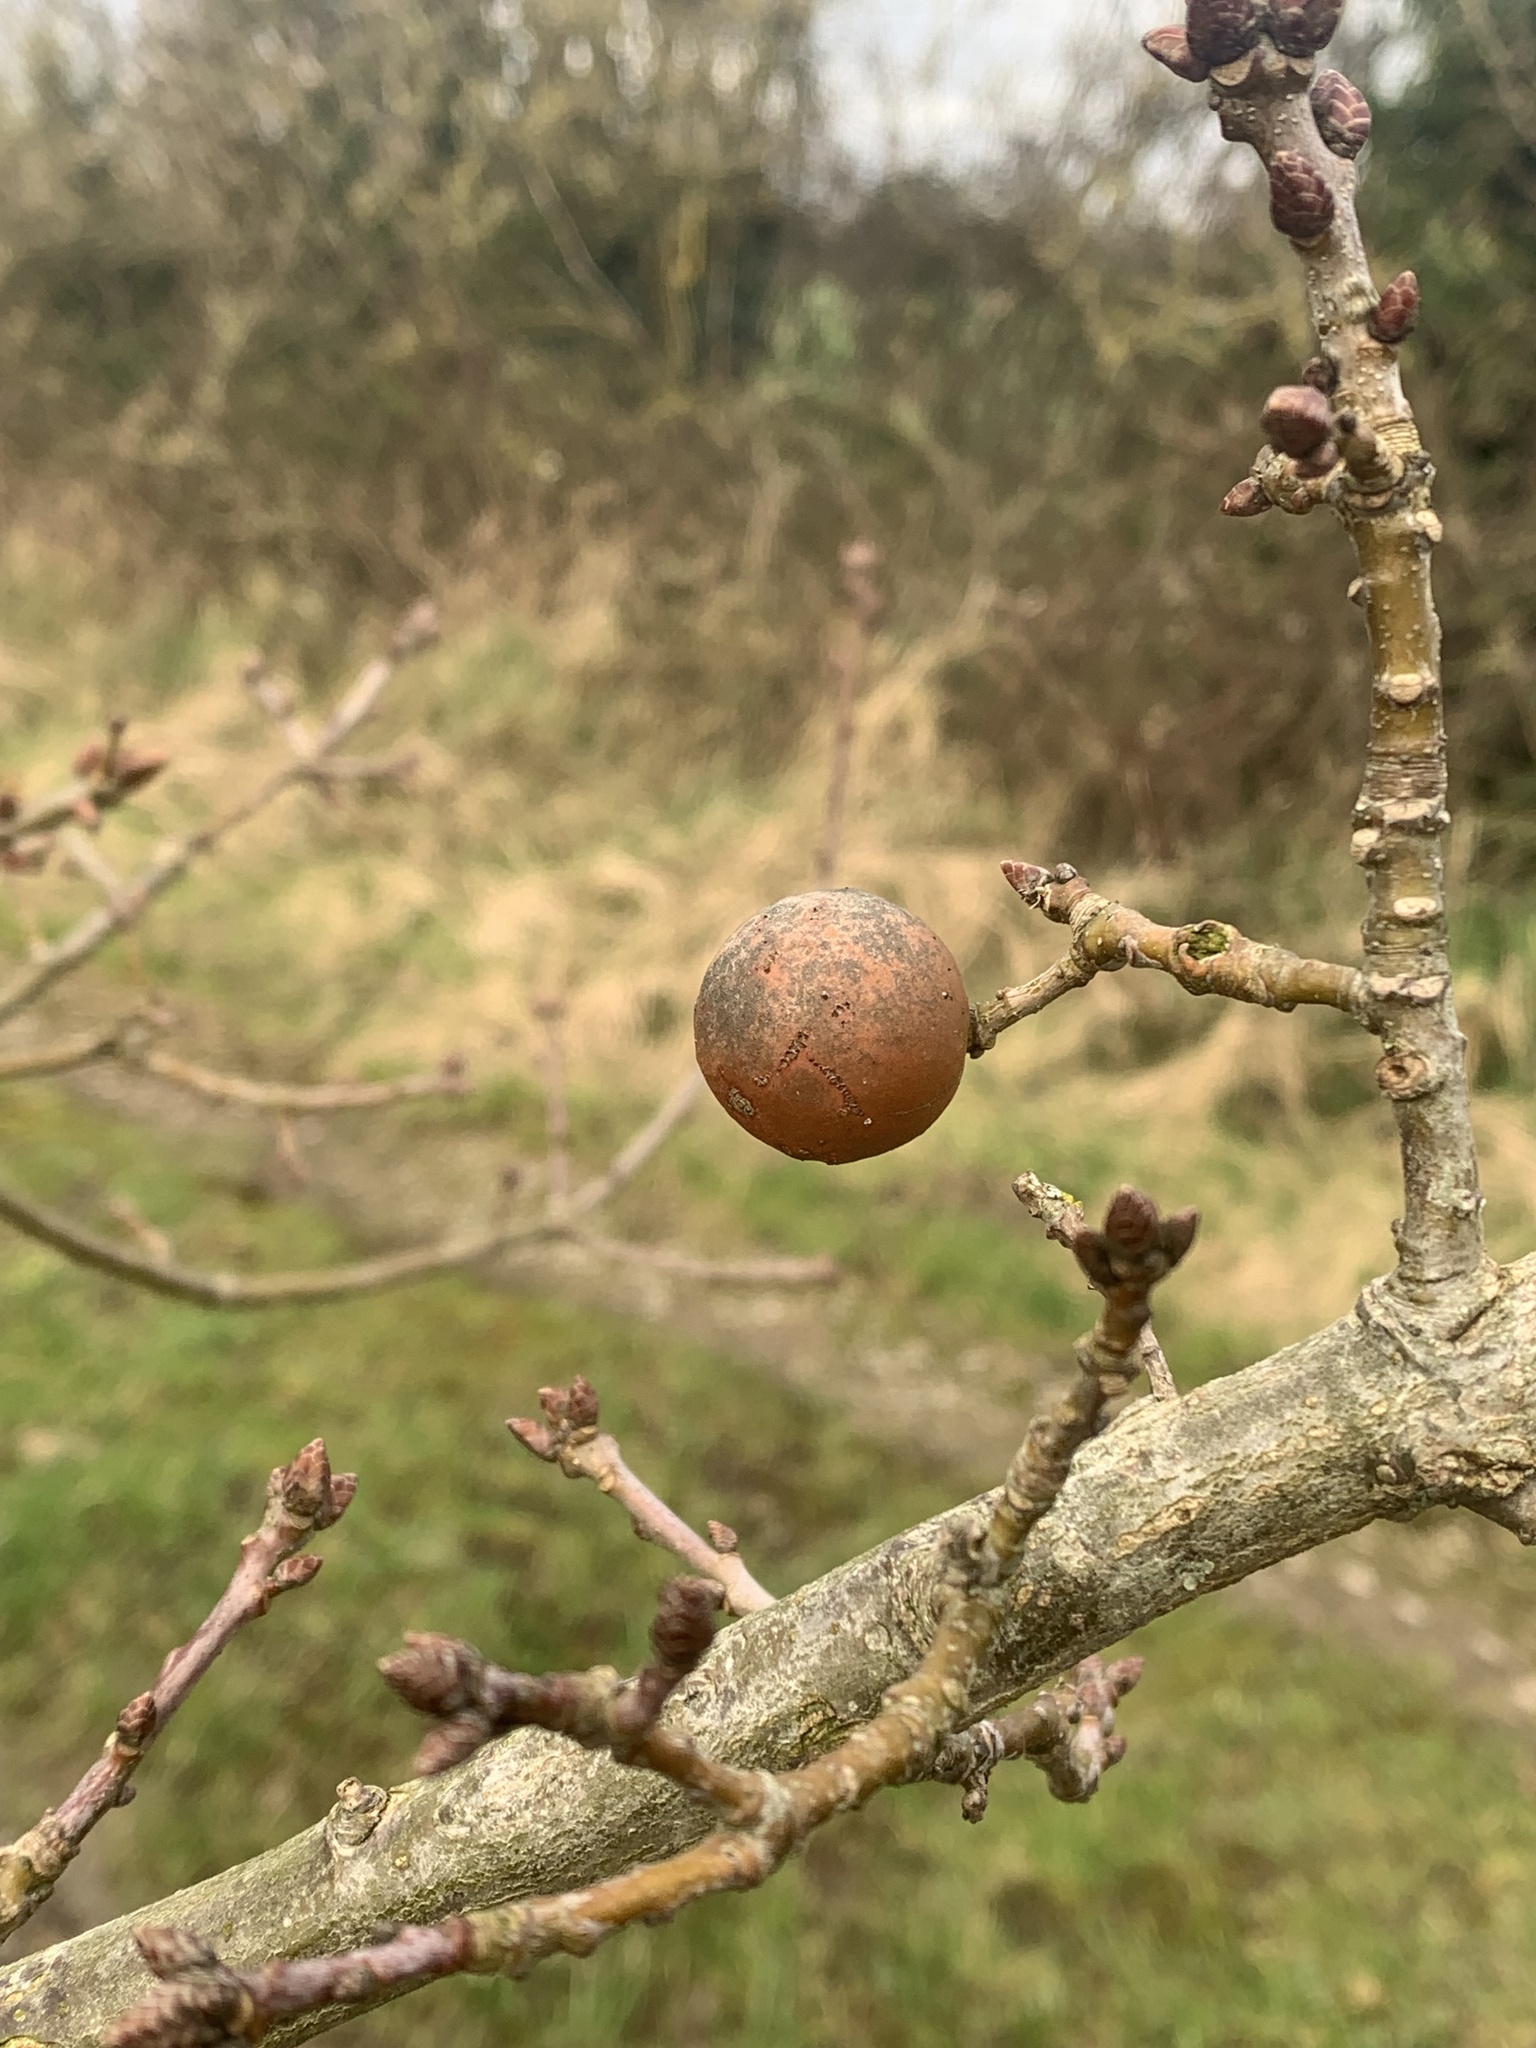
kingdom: Animalia
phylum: Arthropoda
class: Insecta
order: Hymenoptera
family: Cynipidae
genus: Andricus
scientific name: Andricus kollari
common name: Marble gall
